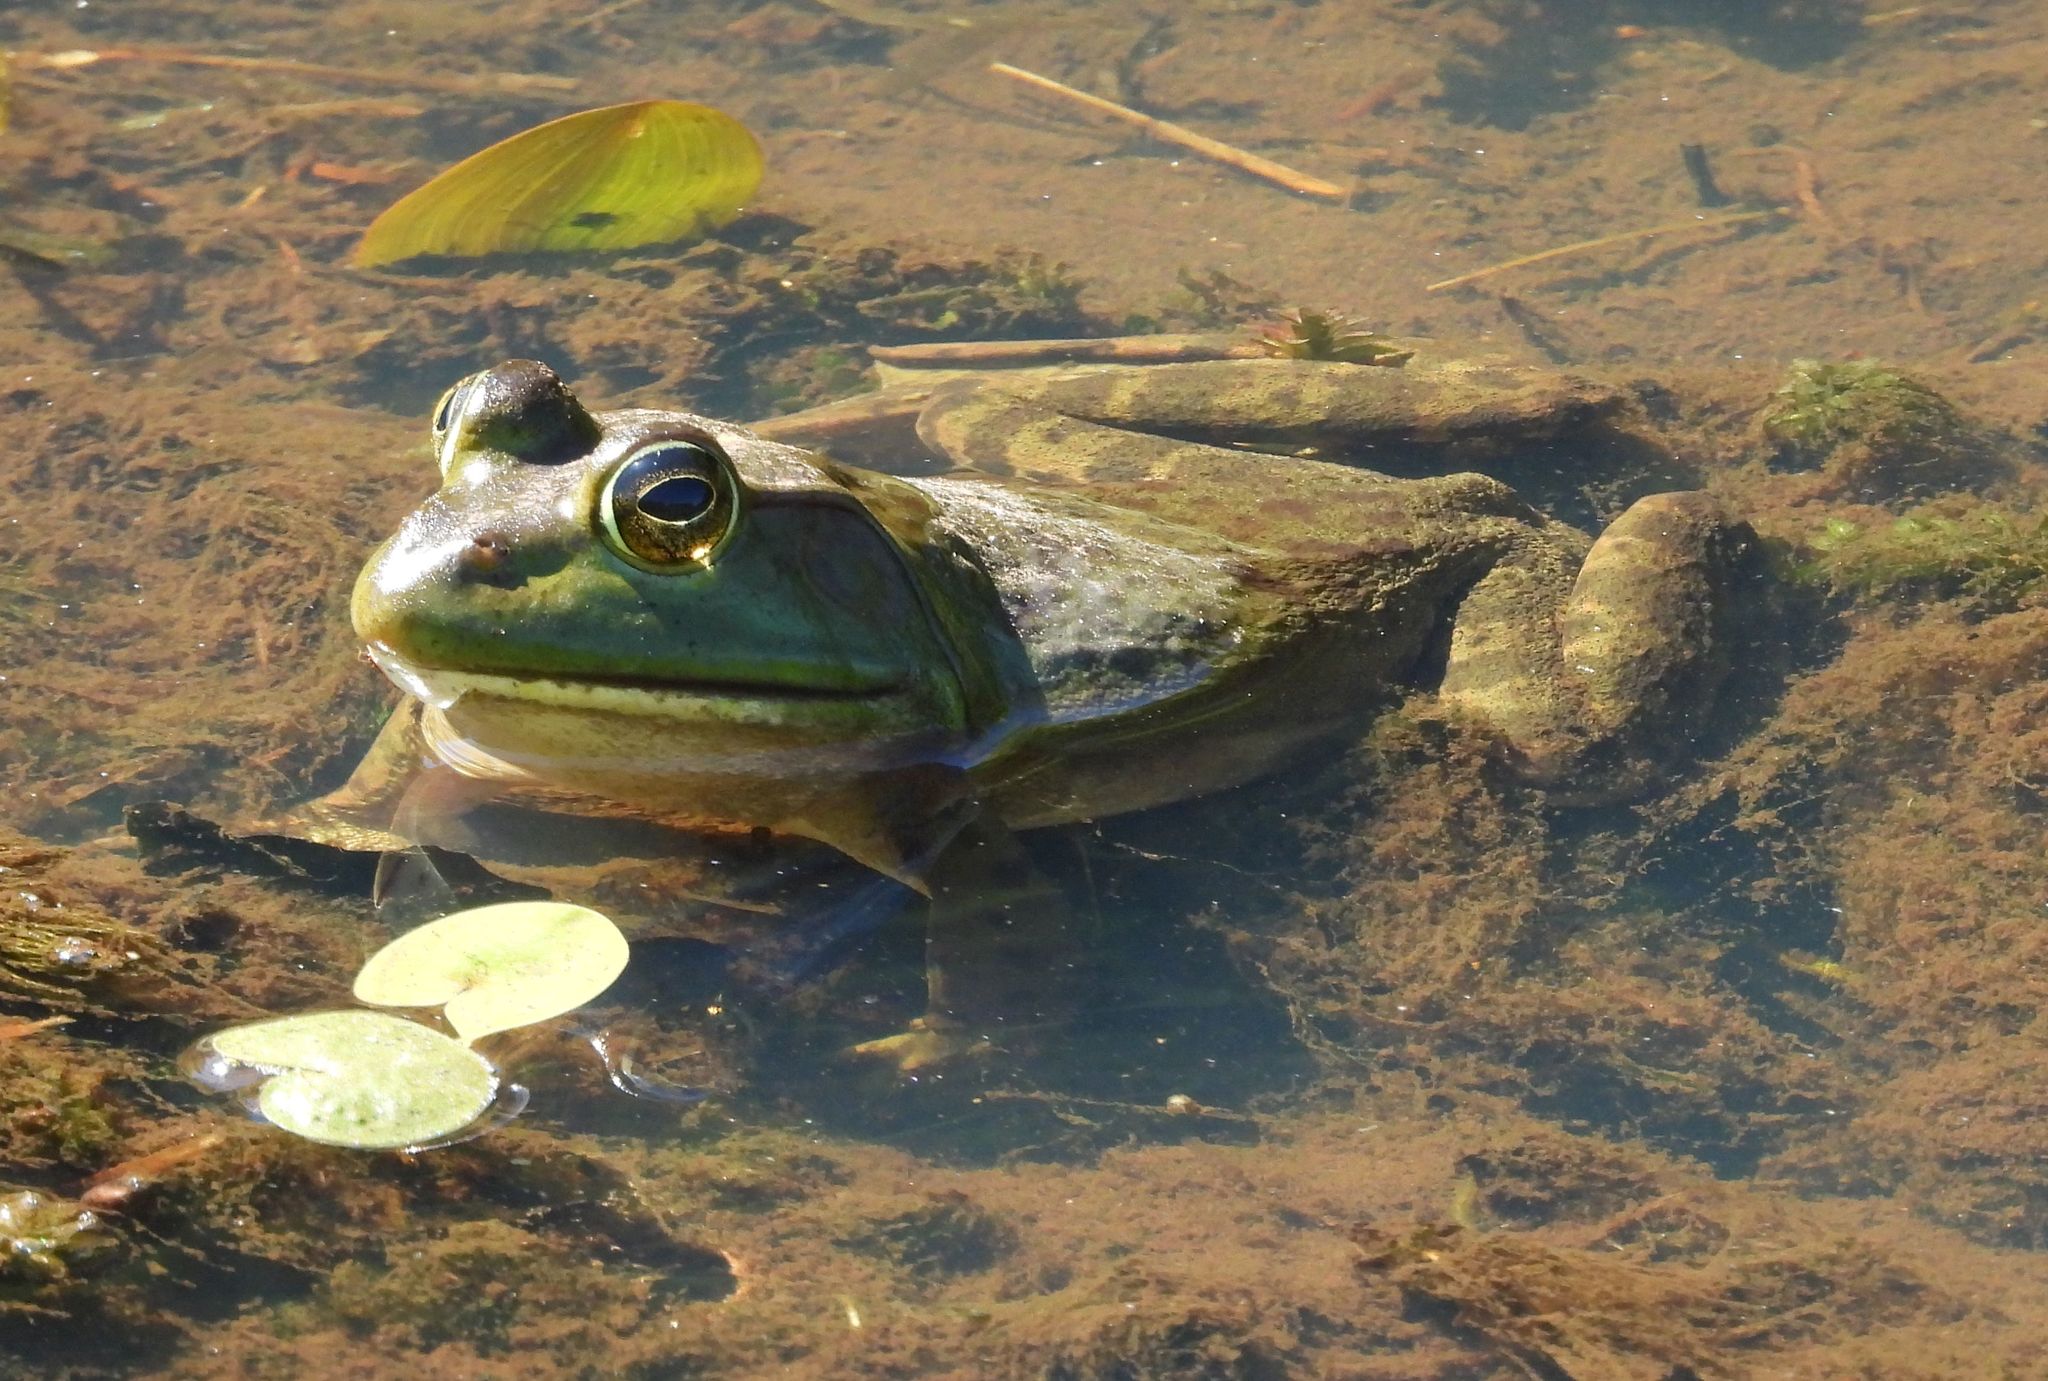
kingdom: Animalia
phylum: Chordata
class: Amphibia
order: Anura
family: Ranidae
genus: Lithobates
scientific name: Lithobates catesbeianus
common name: American bullfrog
